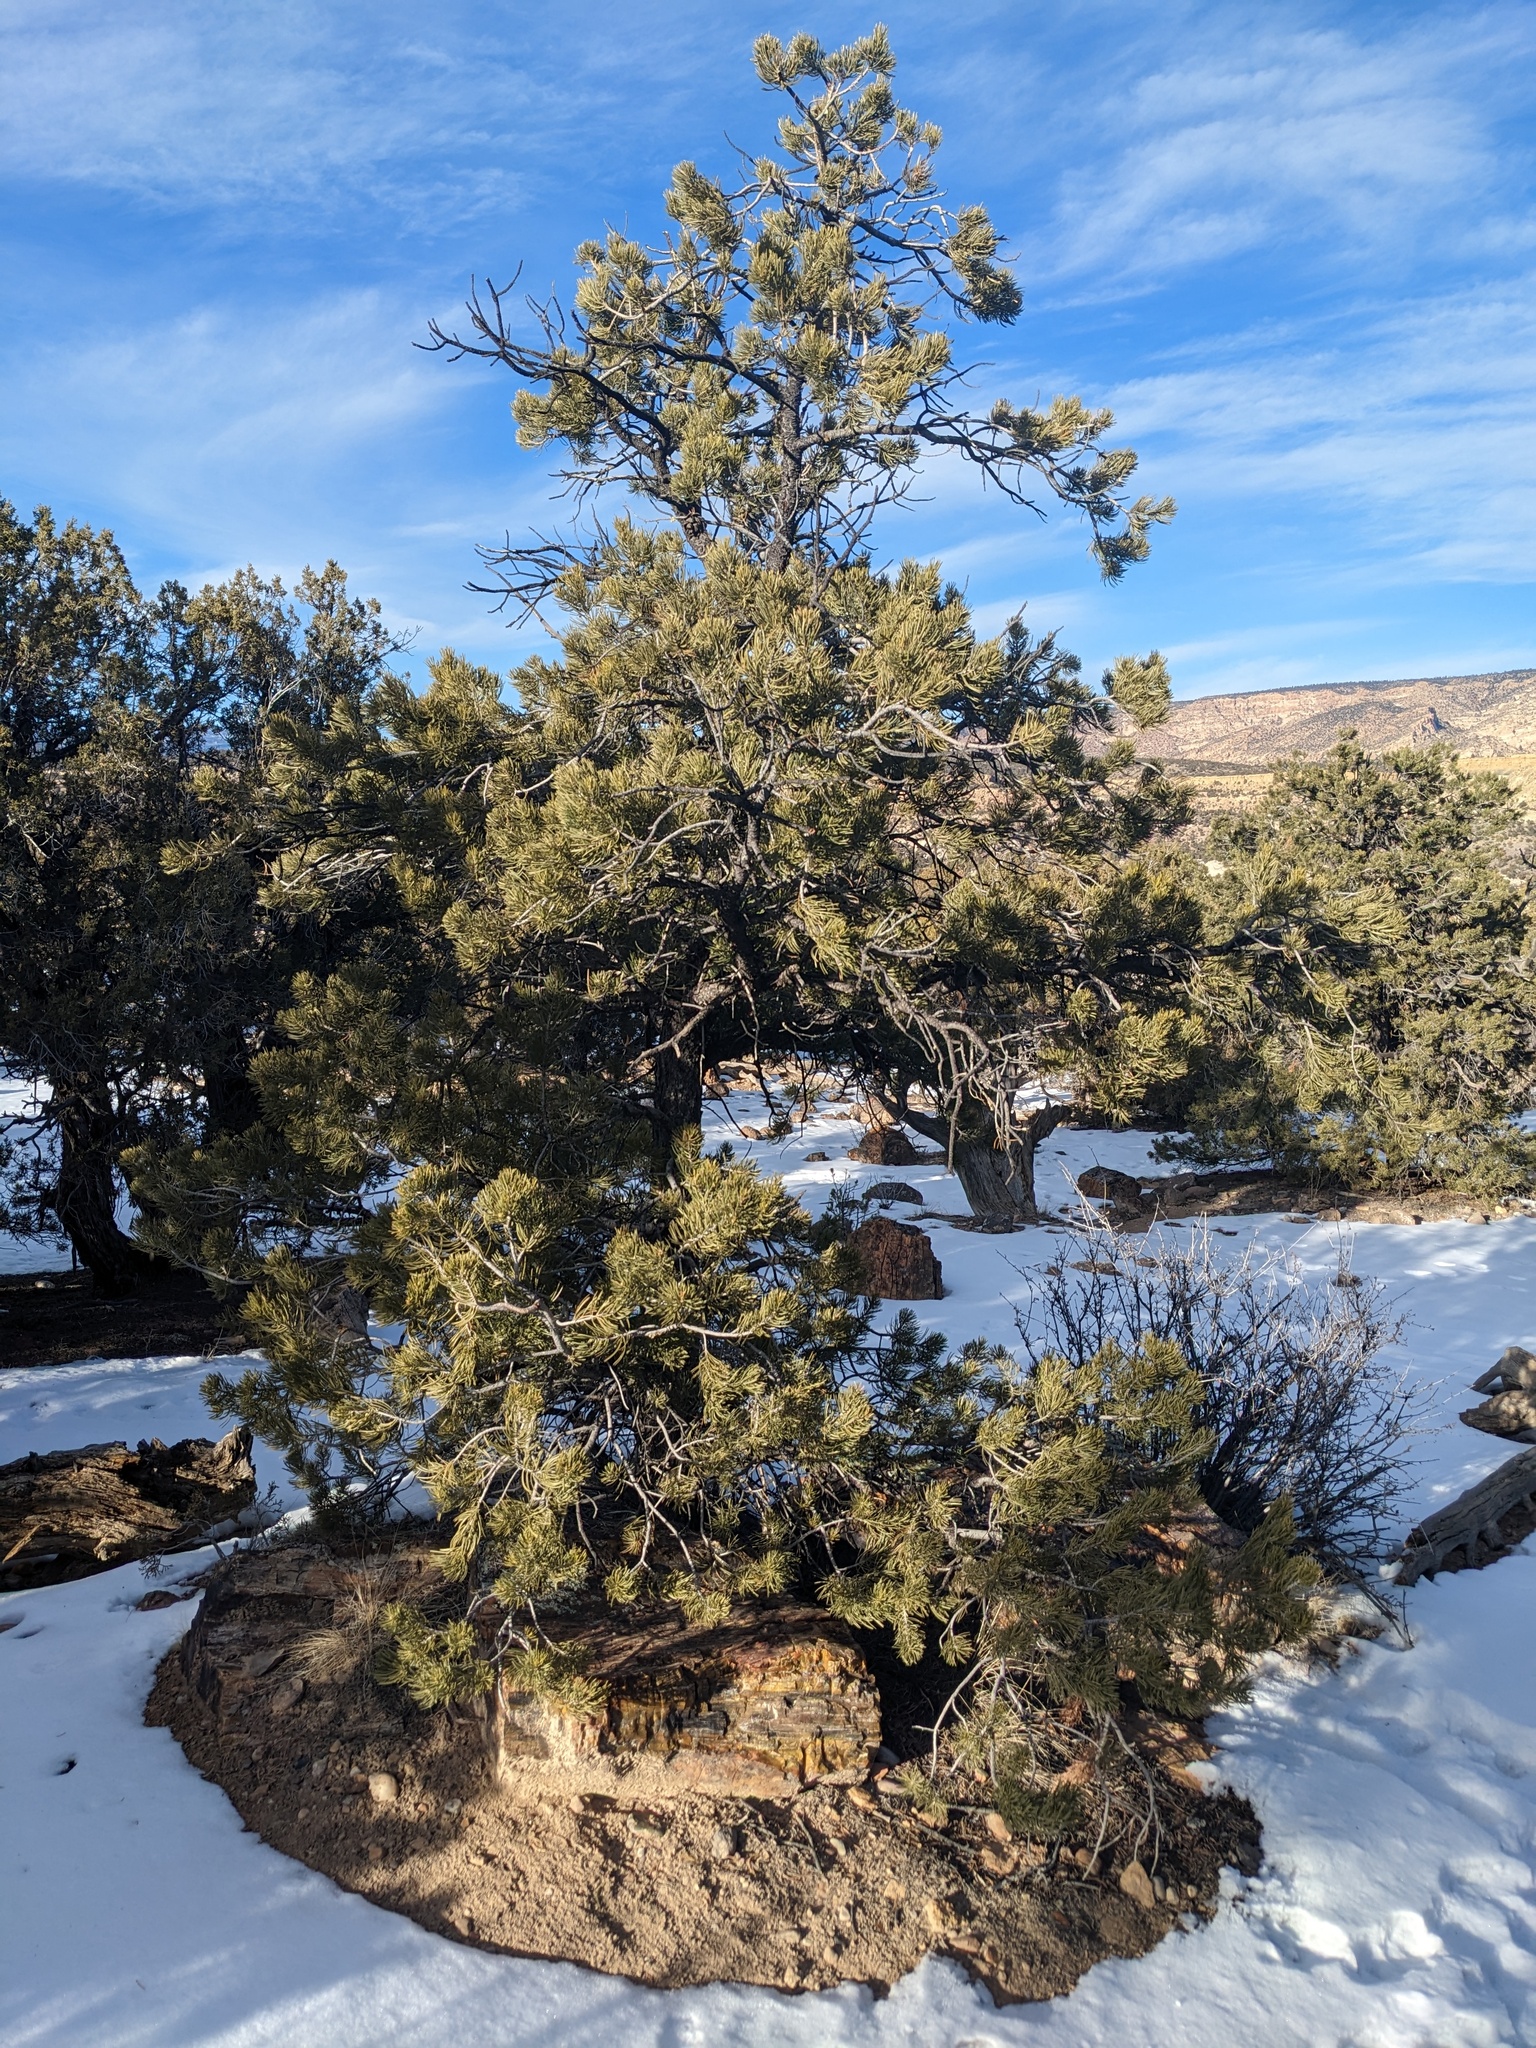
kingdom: Plantae
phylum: Tracheophyta
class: Pinopsida
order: Pinales
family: Pinaceae
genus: Pinus
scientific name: Pinus edulis
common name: Colorado pinyon
